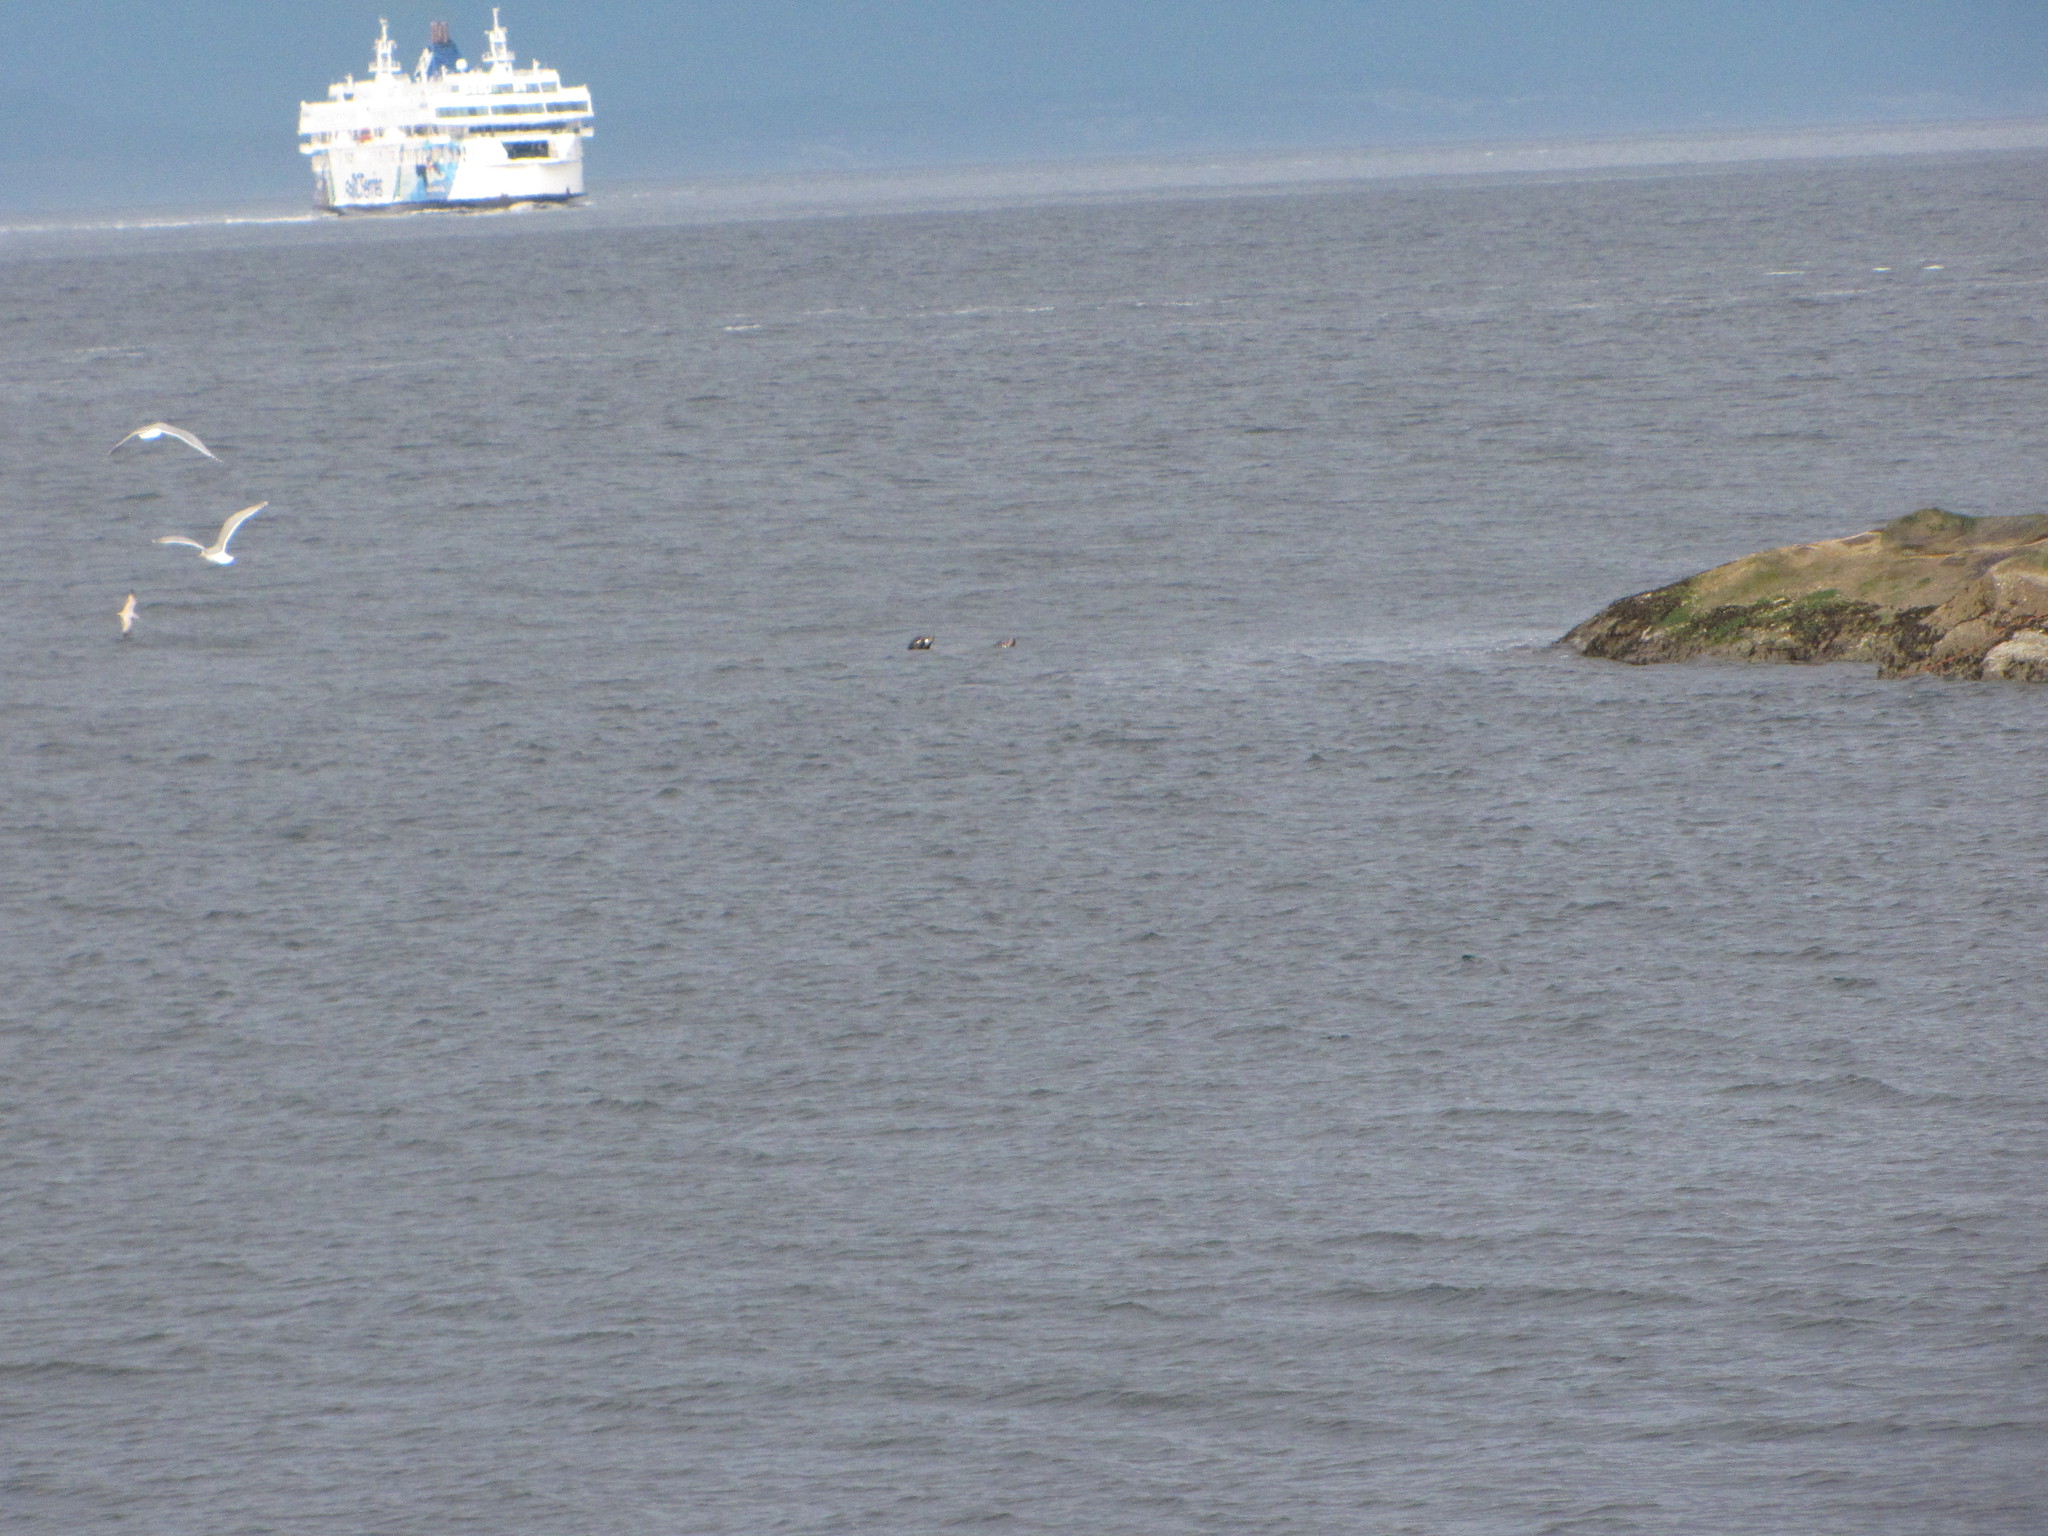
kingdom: Animalia
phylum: Chordata
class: Mammalia
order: Carnivora
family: Otariidae
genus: Zalophus
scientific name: Zalophus californianus
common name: California sea lion
